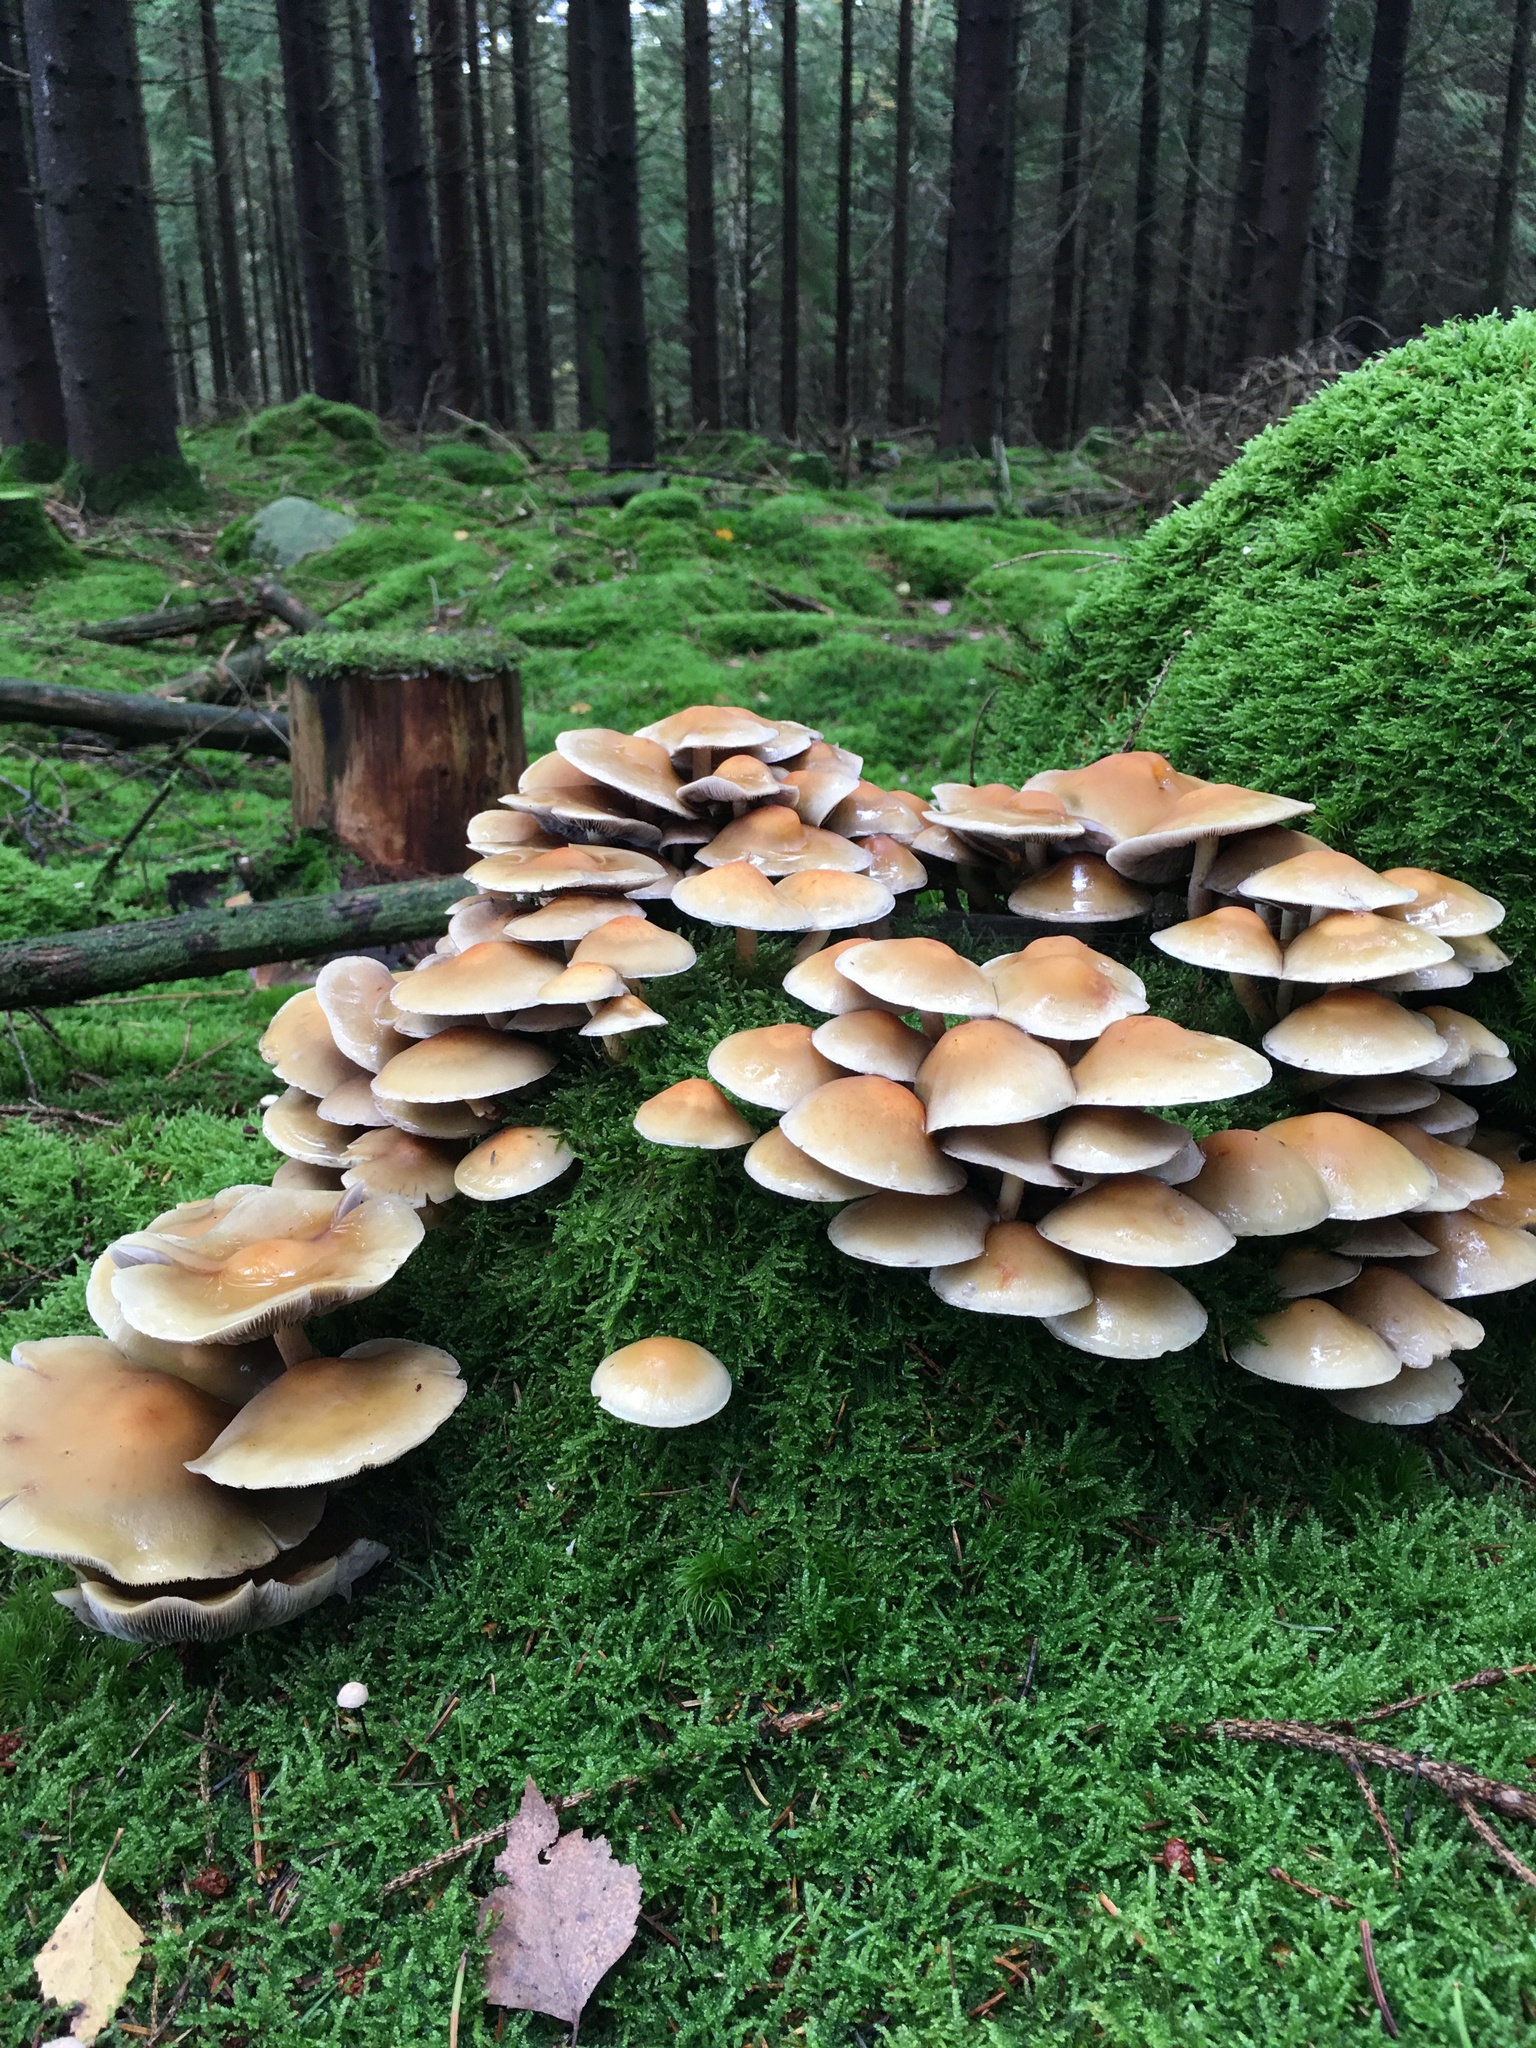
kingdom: Fungi
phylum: Basidiomycota
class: Agaricomycetes
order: Agaricales
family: Strophariaceae
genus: Hypholoma
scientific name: Hypholoma capnoides
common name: Conifer tuft
